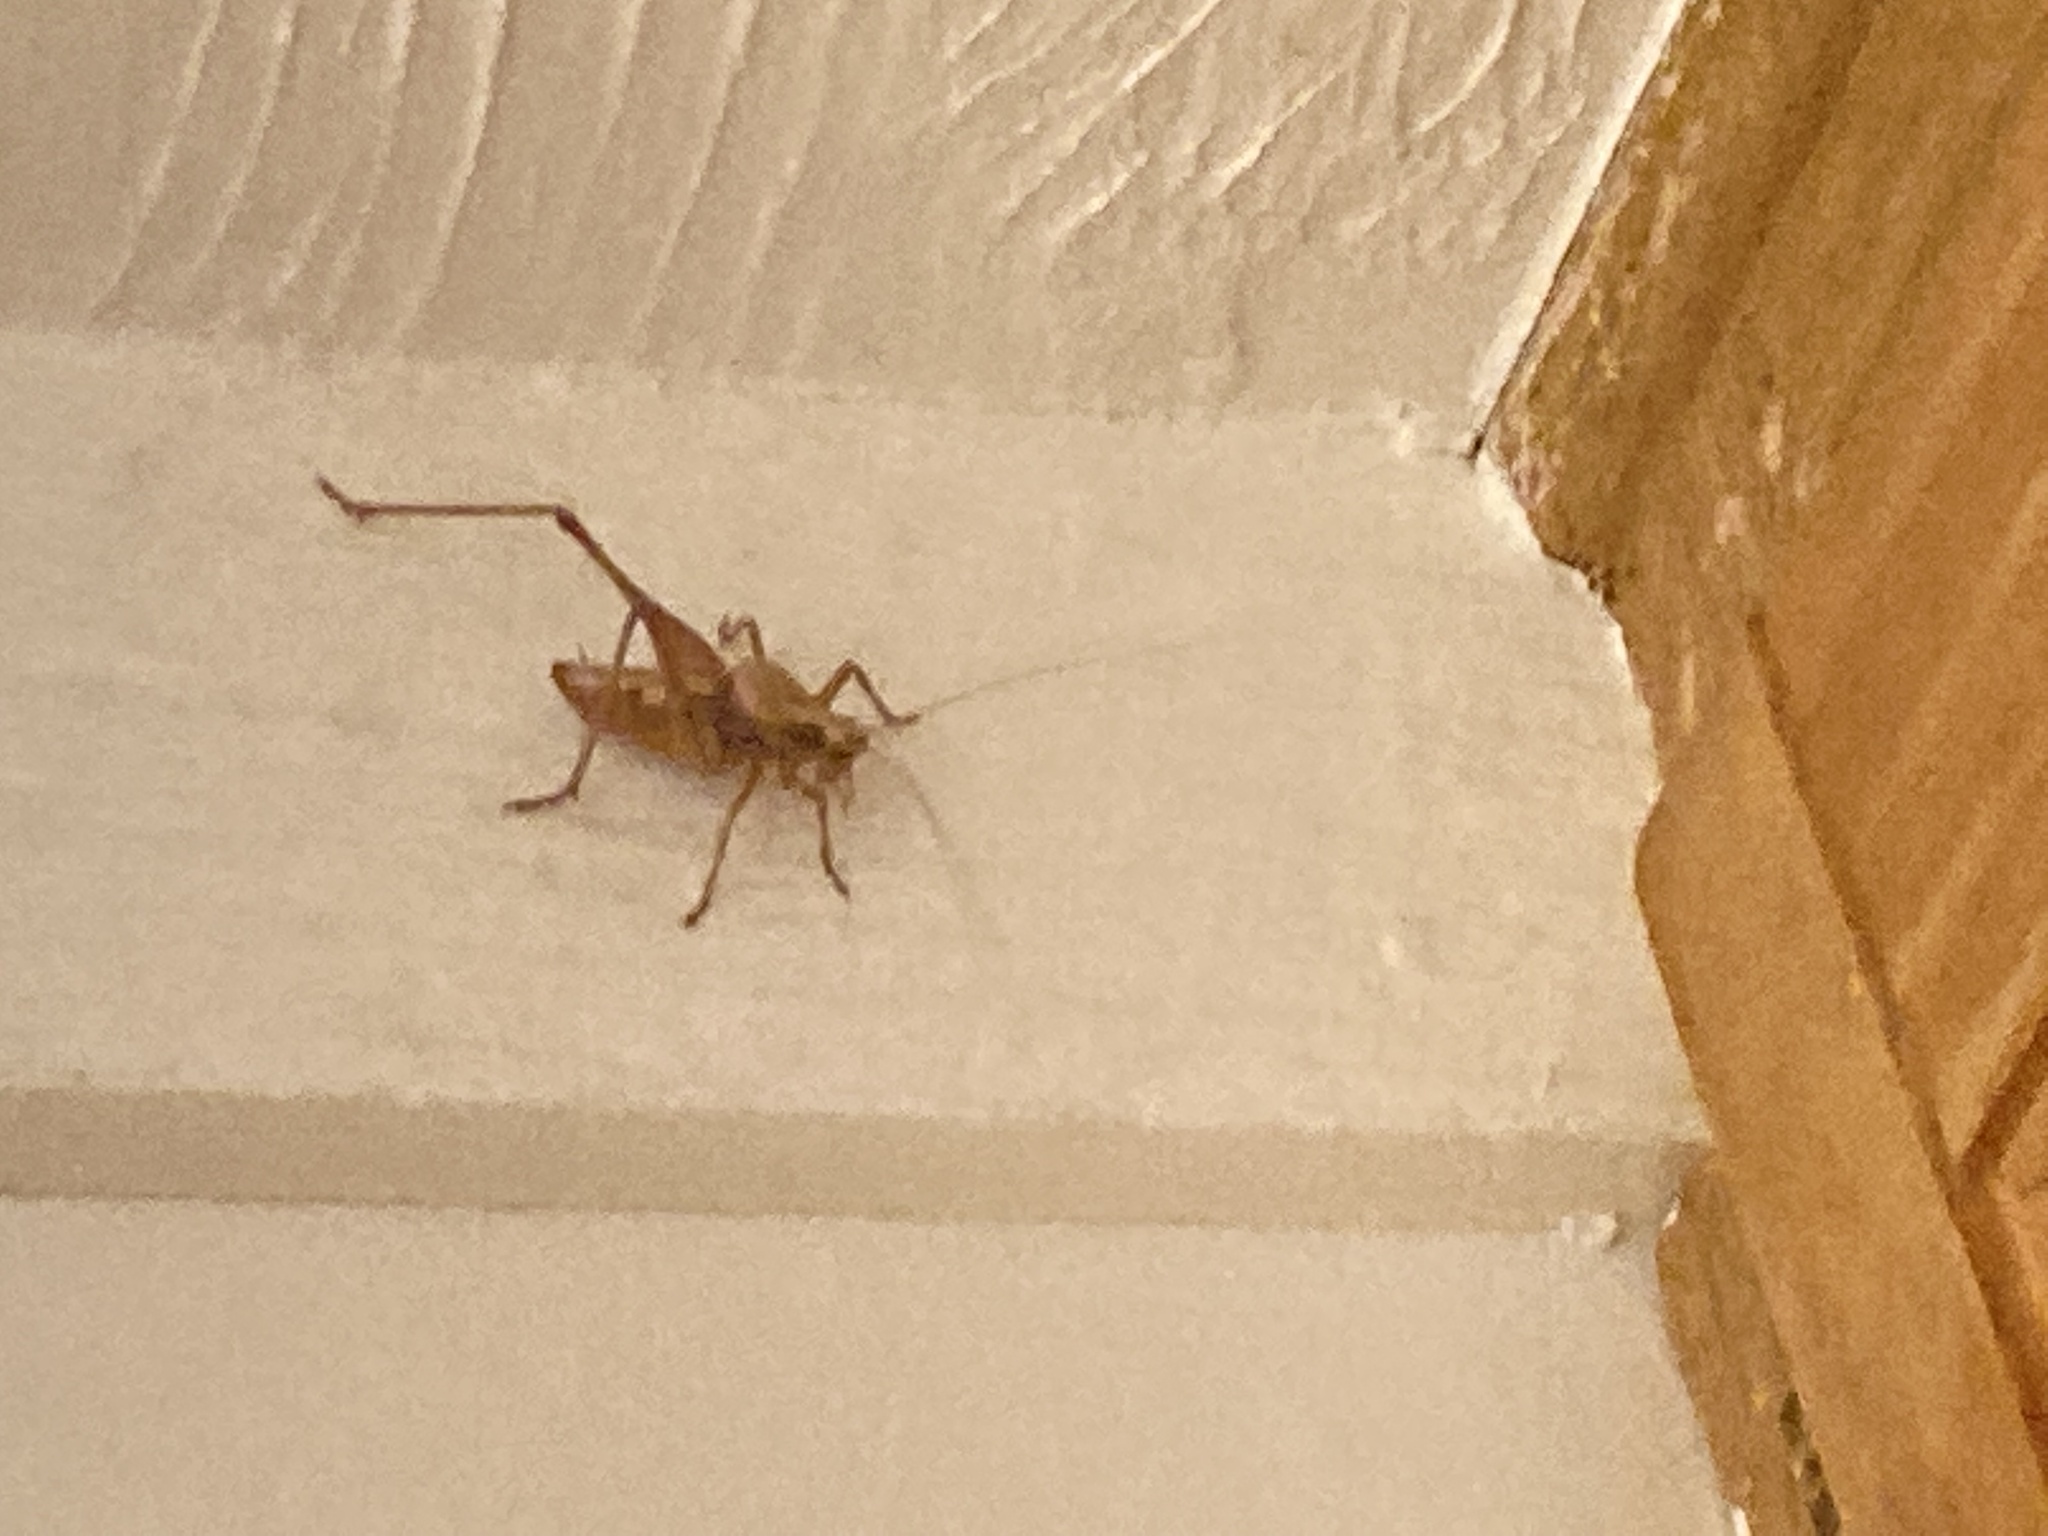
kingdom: Animalia
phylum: Arthropoda
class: Insecta
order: Orthoptera
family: Tettigoniidae
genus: Neduba
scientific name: Neduba cascadia
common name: Cascade shieldback
